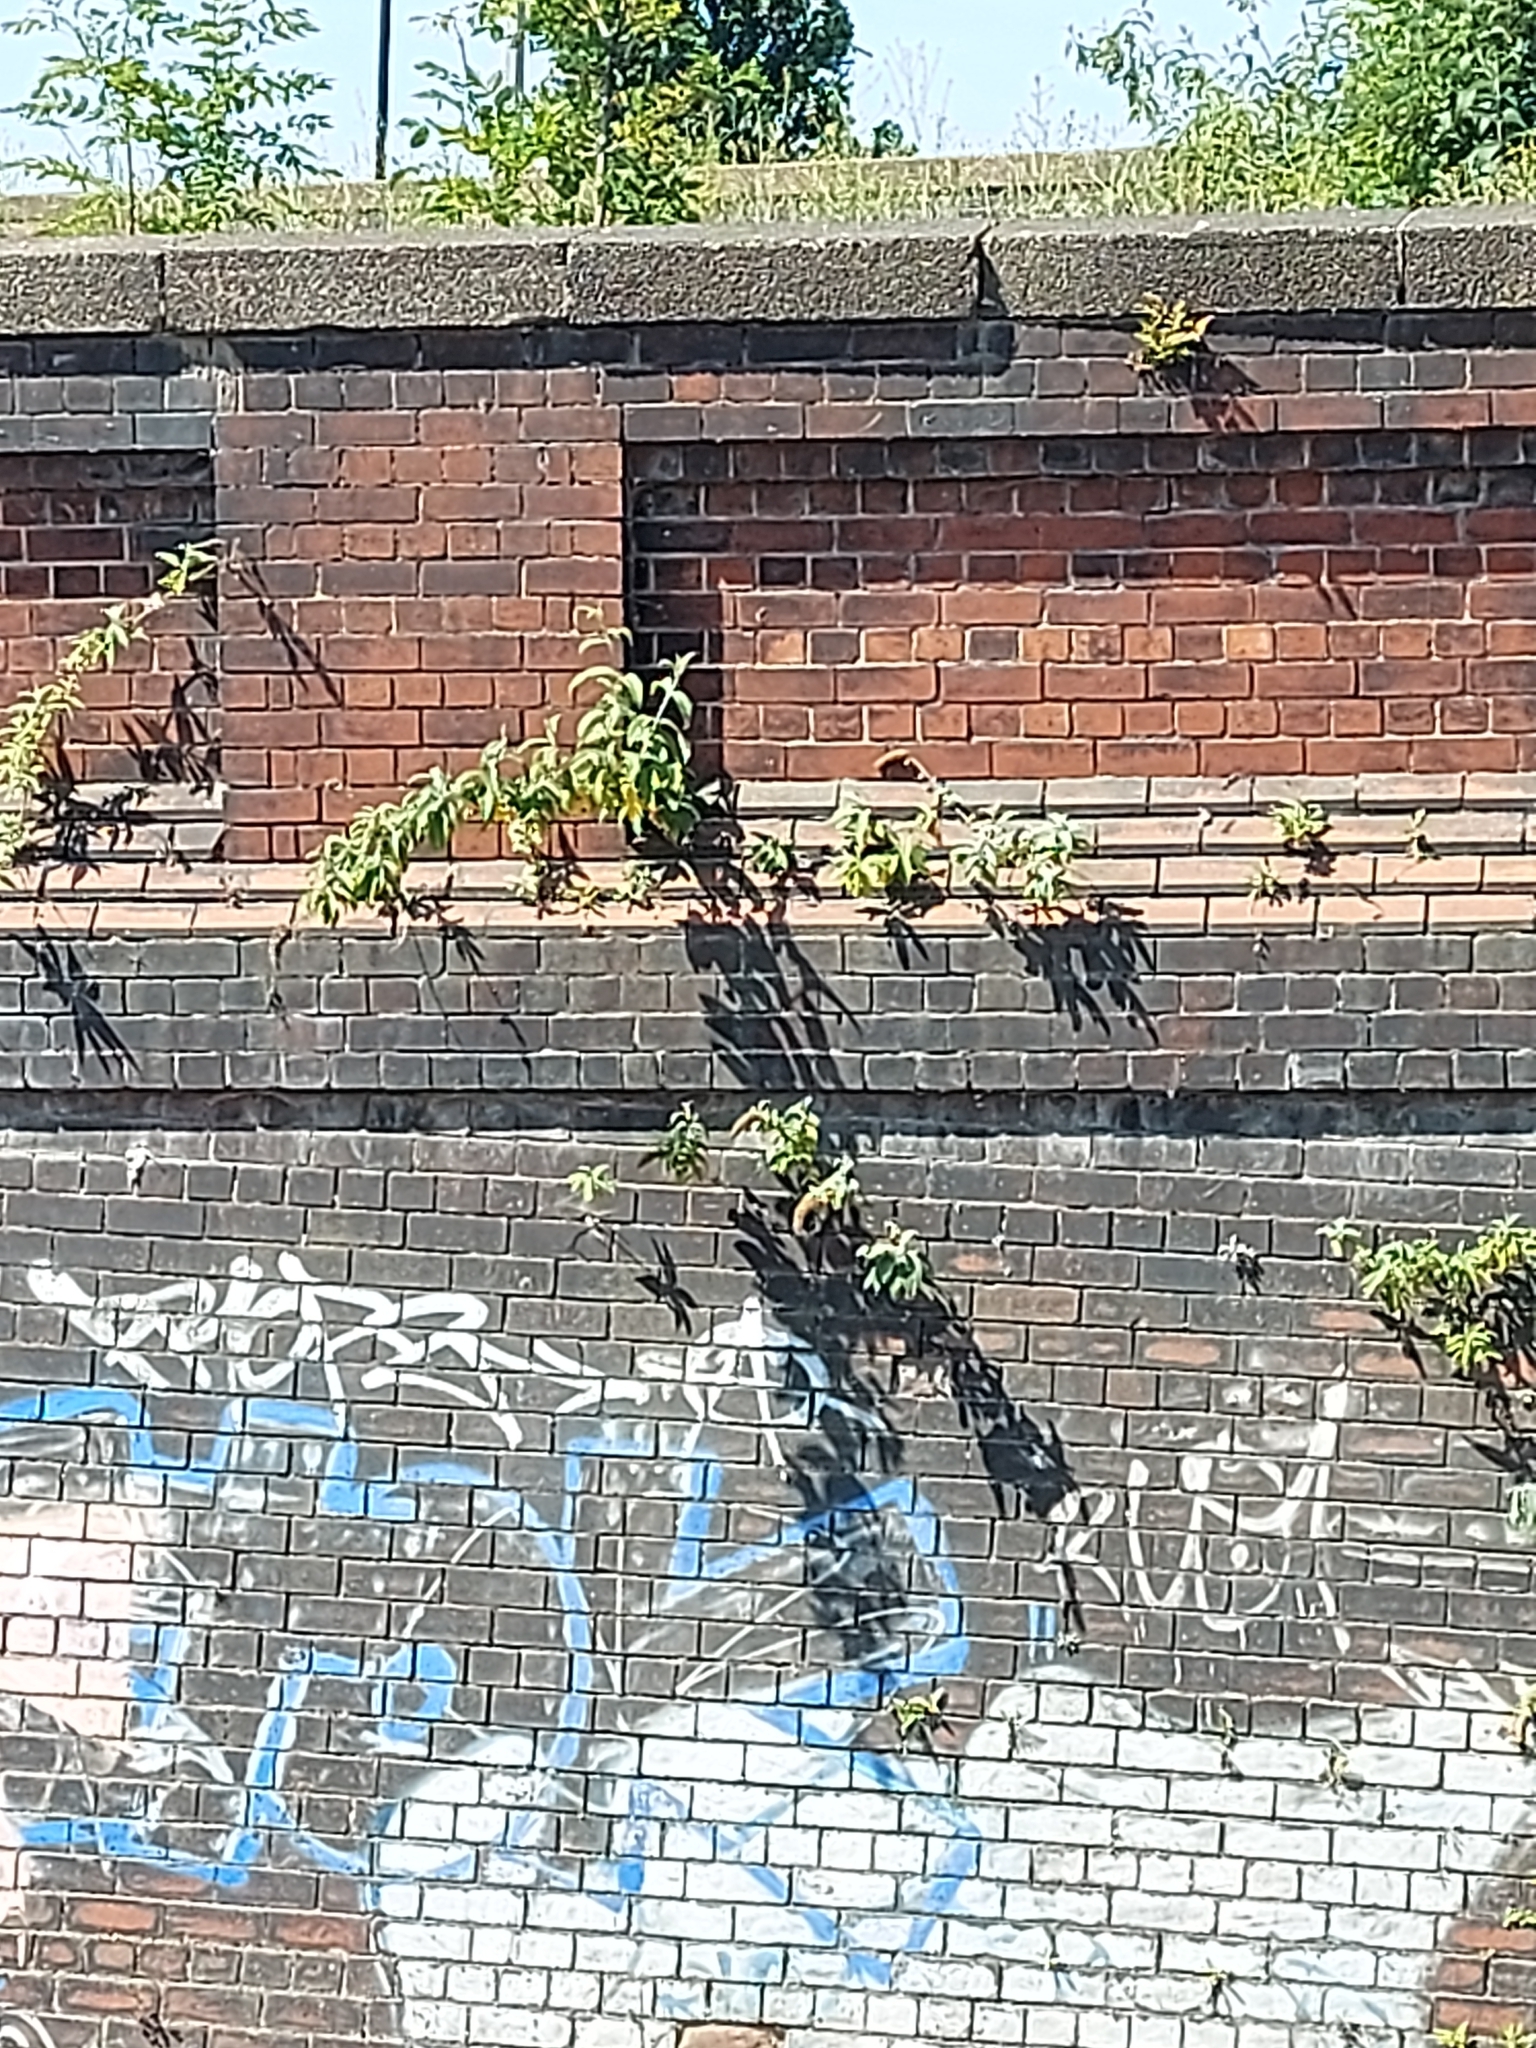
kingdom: Plantae
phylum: Tracheophyta
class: Magnoliopsida
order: Lamiales
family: Scrophulariaceae
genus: Buddleja
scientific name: Buddleja davidii
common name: Butterfly-bush
